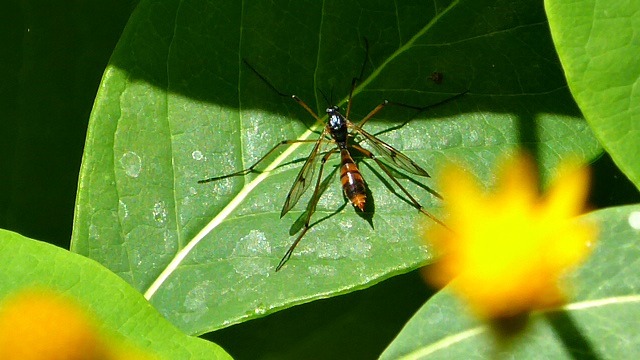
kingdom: Animalia
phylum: Arthropoda
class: Insecta
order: Diptera
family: Ptychopteridae
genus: Ptychoptera
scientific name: Ptychoptera quadrifasciata
